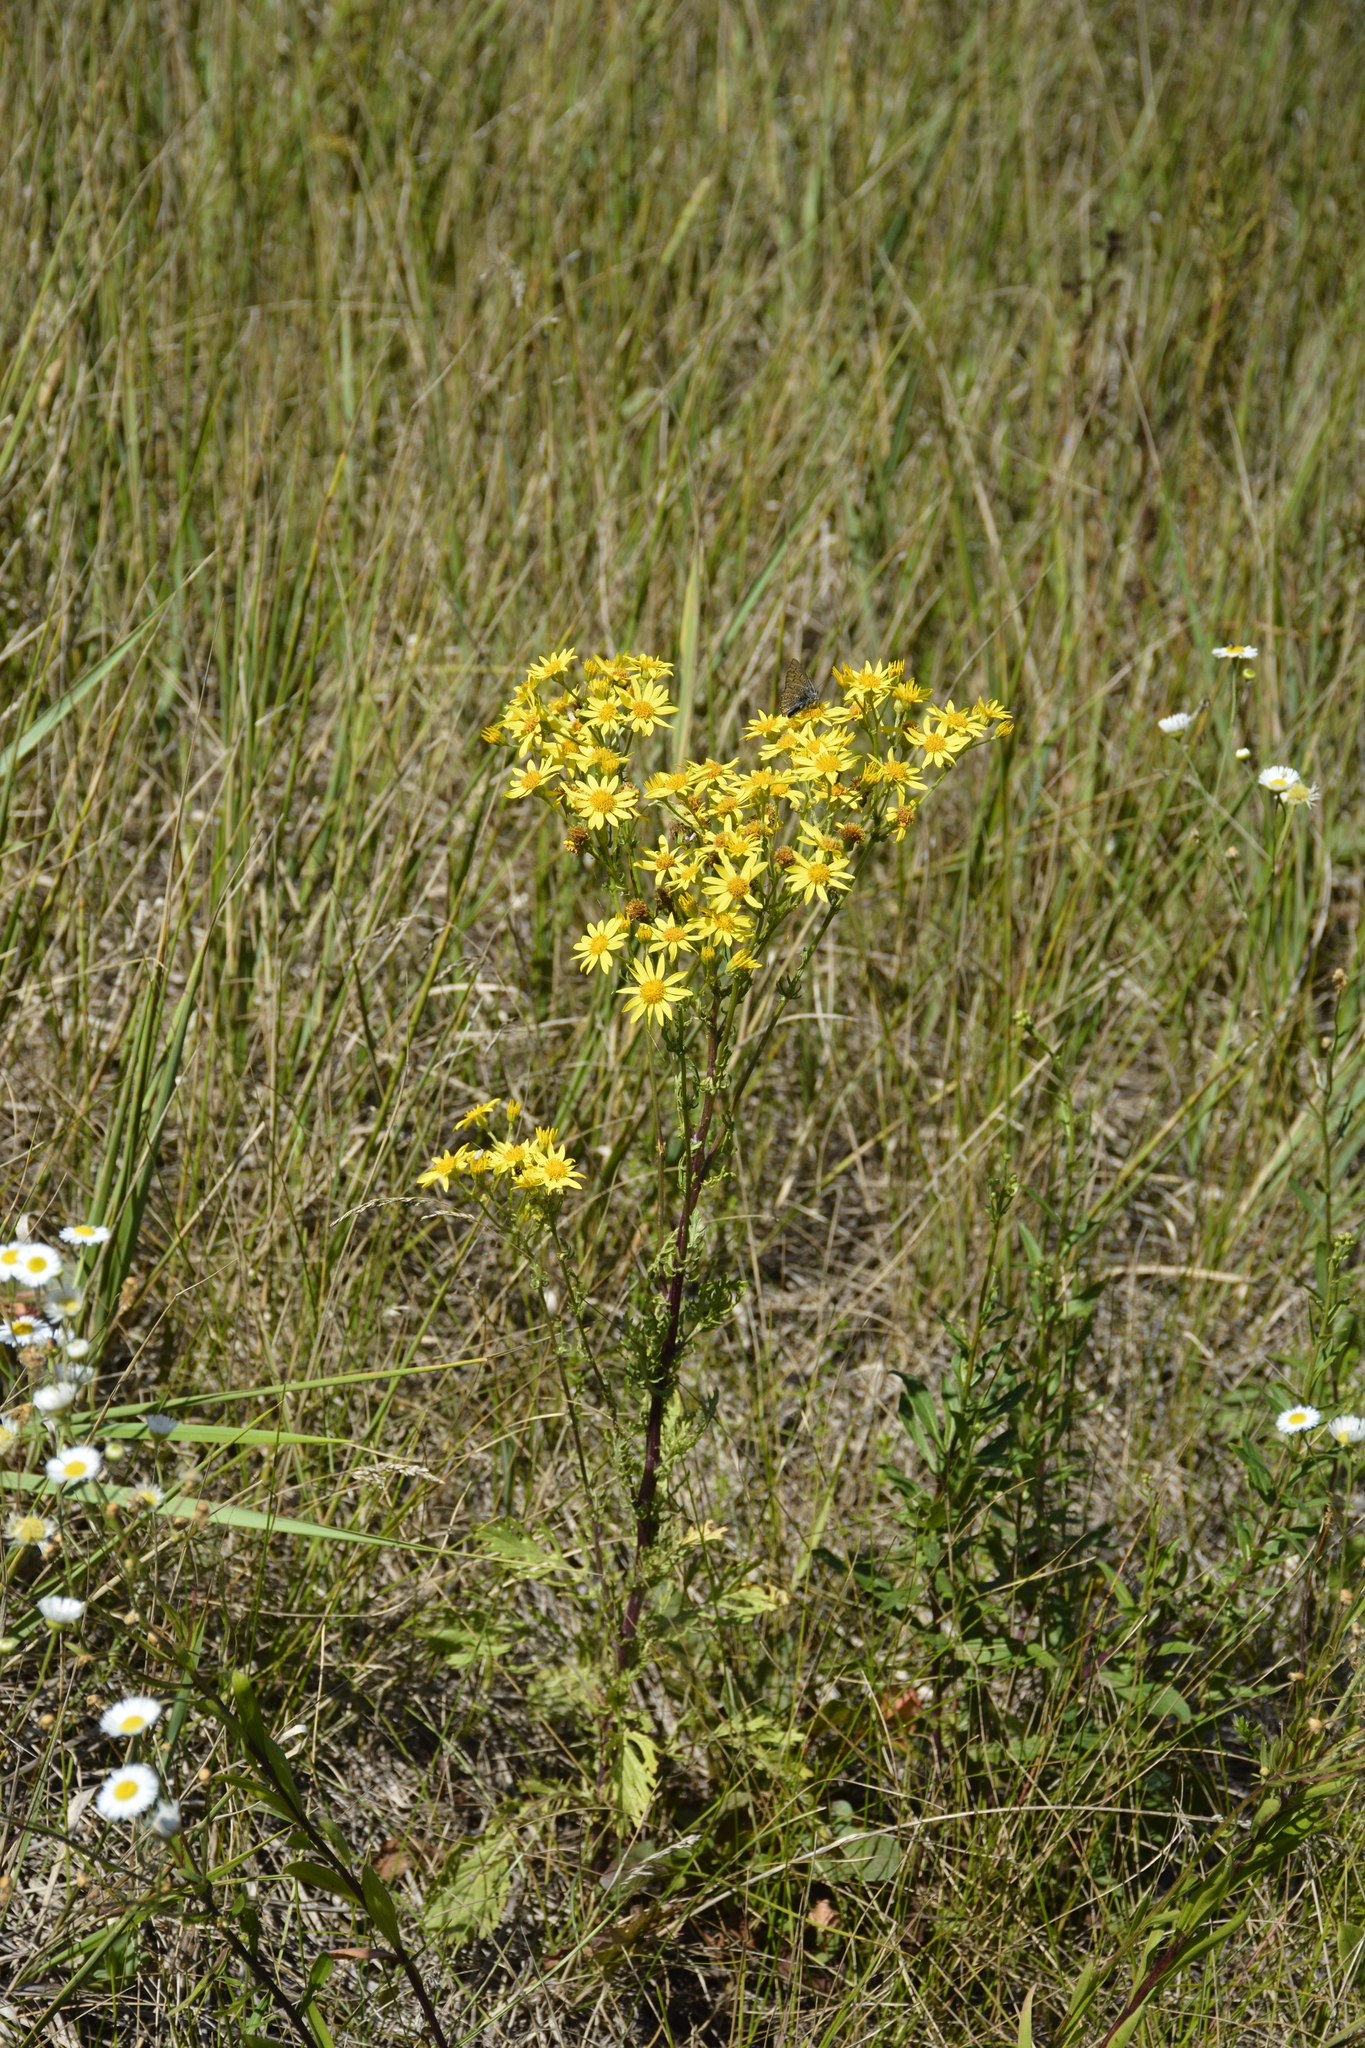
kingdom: Plantae
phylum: Tracheophyta
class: Magnoliopsida
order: Asterales
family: Asteraceae
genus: Jacobaea
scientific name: Jacobaea vulgaris
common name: Stinking willie
